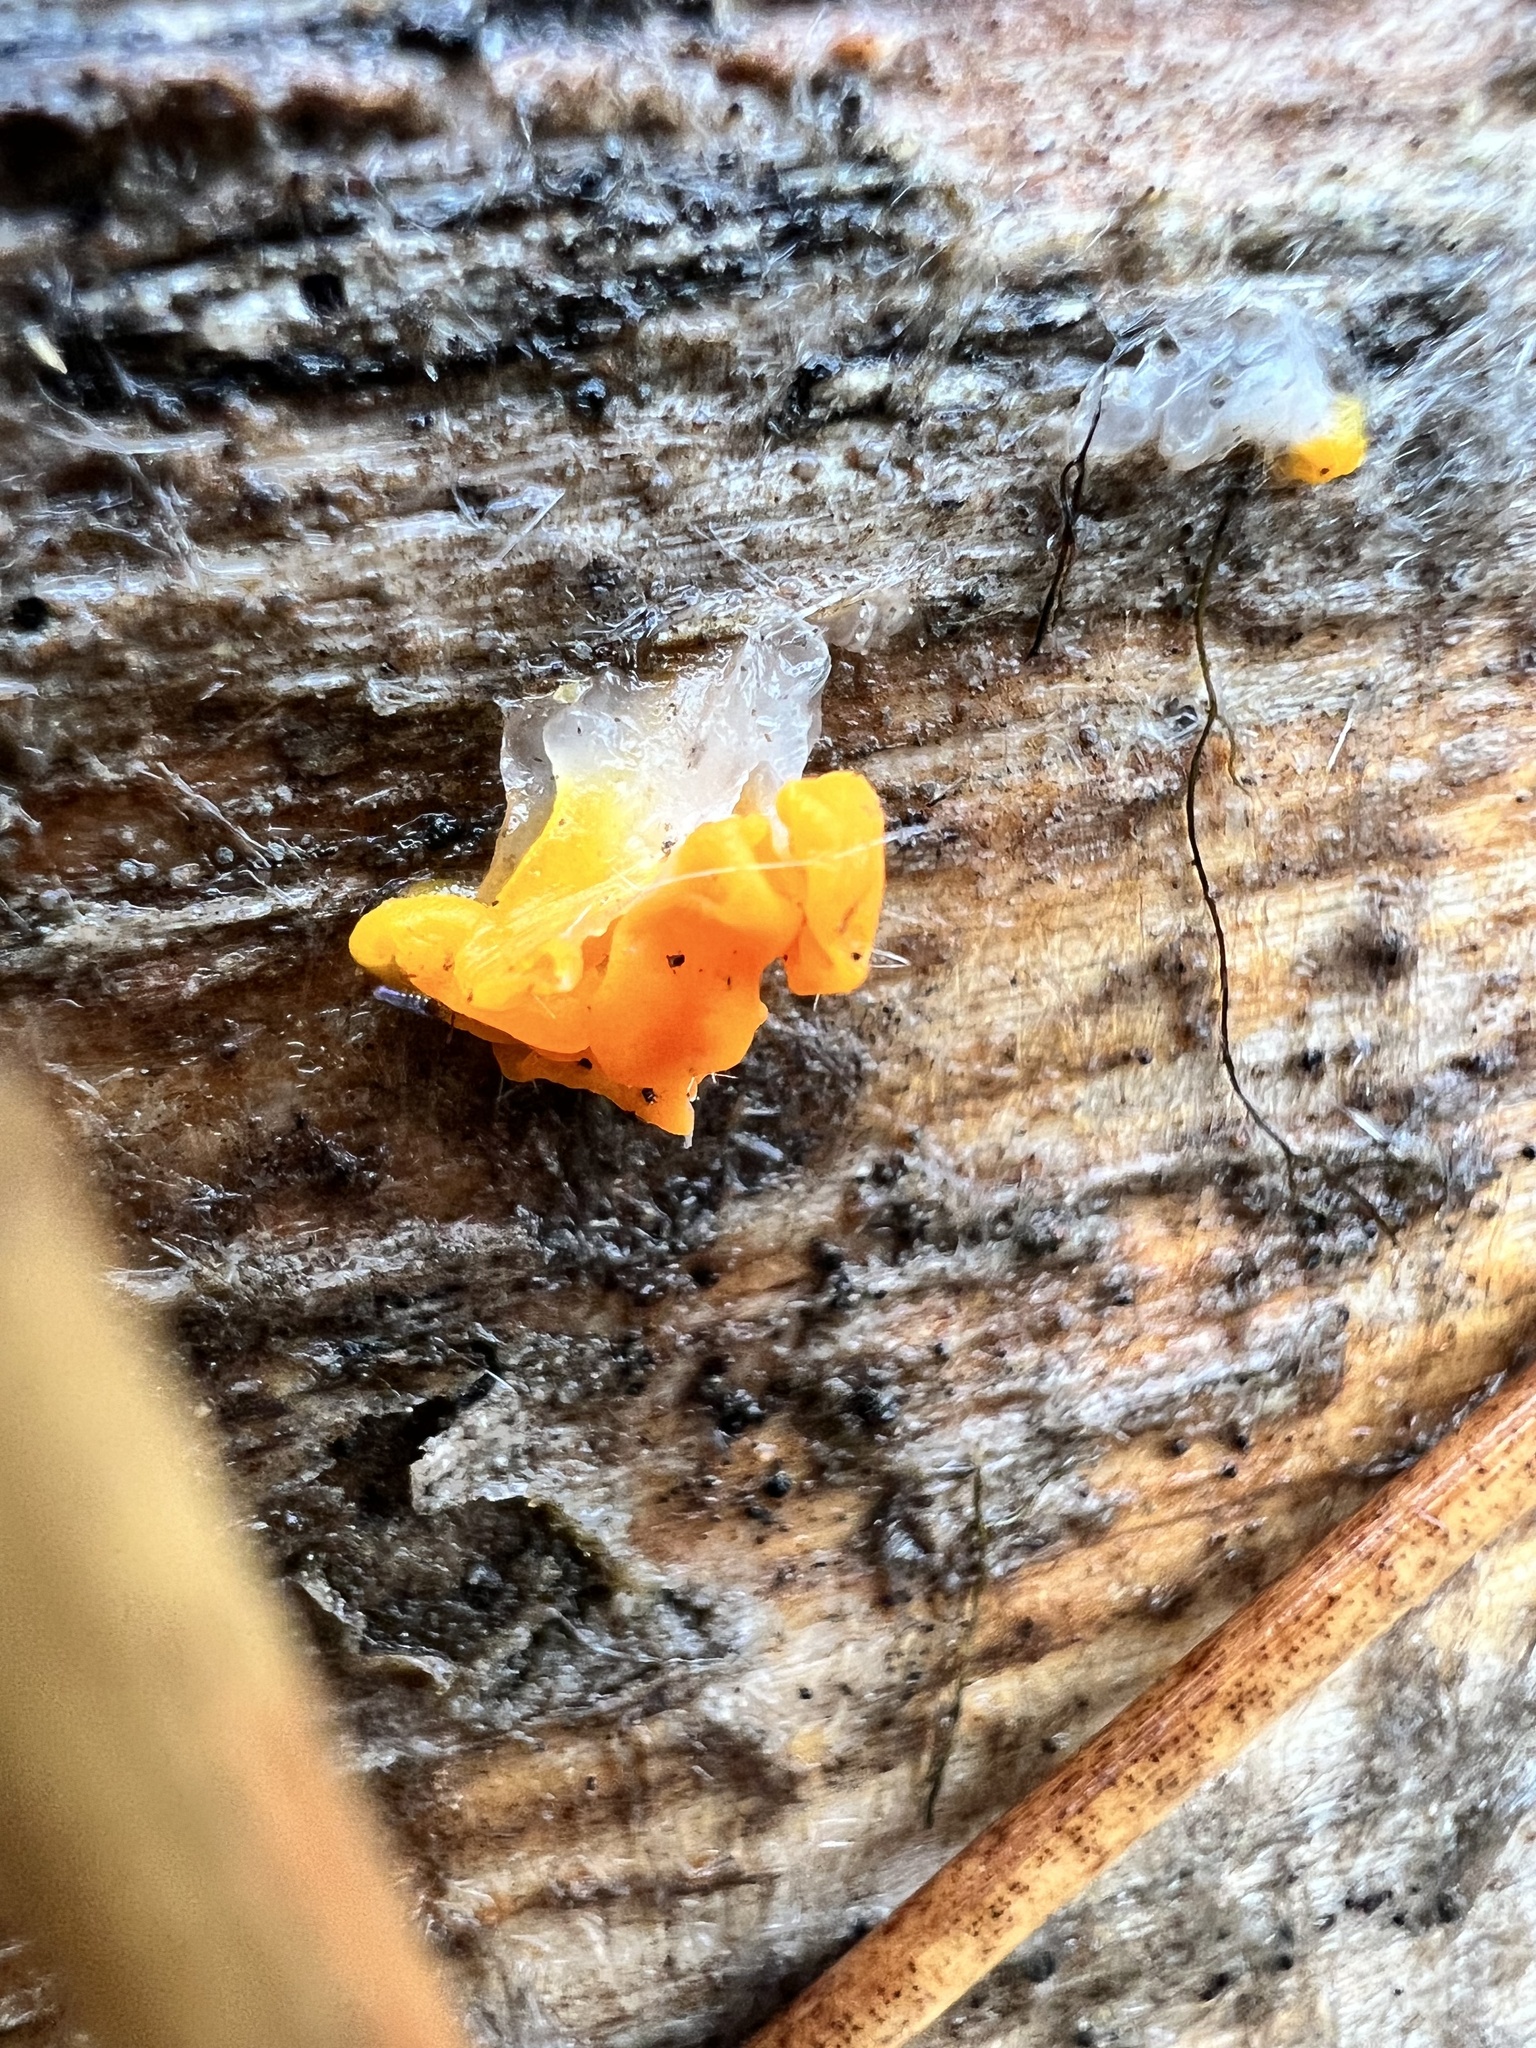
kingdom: Fungi
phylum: Basidiomycota
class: Dacrymycetes
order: Dacrymycetales
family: Dacrymycetaceae
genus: Dacrymyces
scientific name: Dacrymyces chrysospermus
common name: Orange jelly spot
